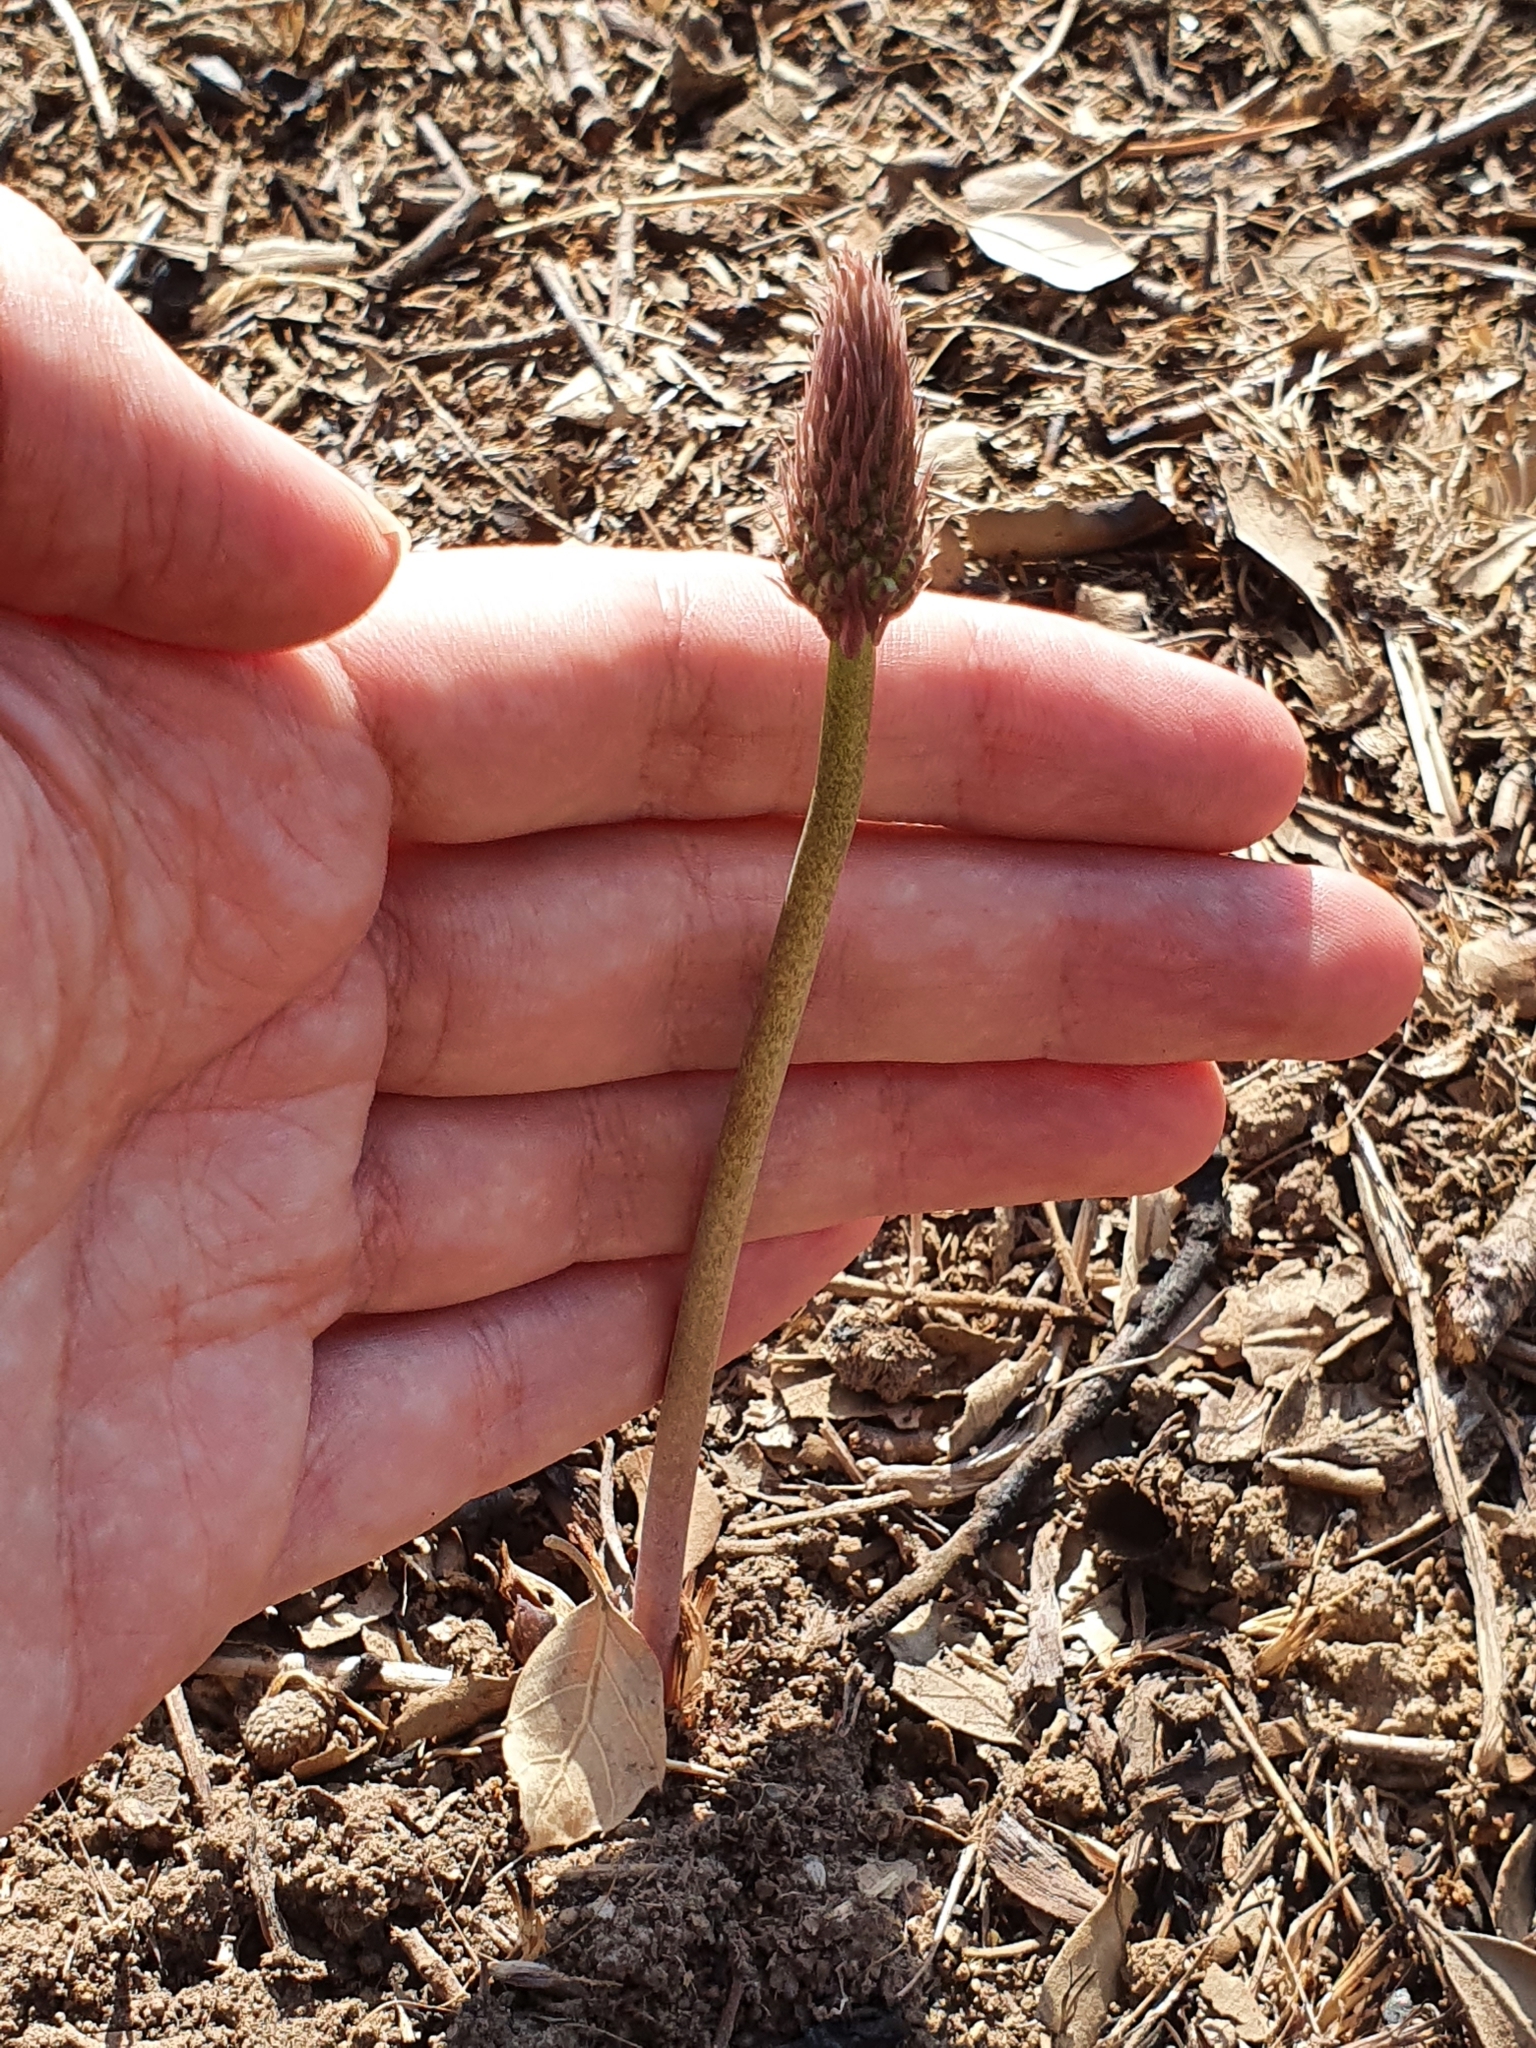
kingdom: Plantae
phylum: Tracheophyta
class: Liliopsida
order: Asparagales
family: Asparagaceae
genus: Drimia
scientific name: Drimia anthericoides
